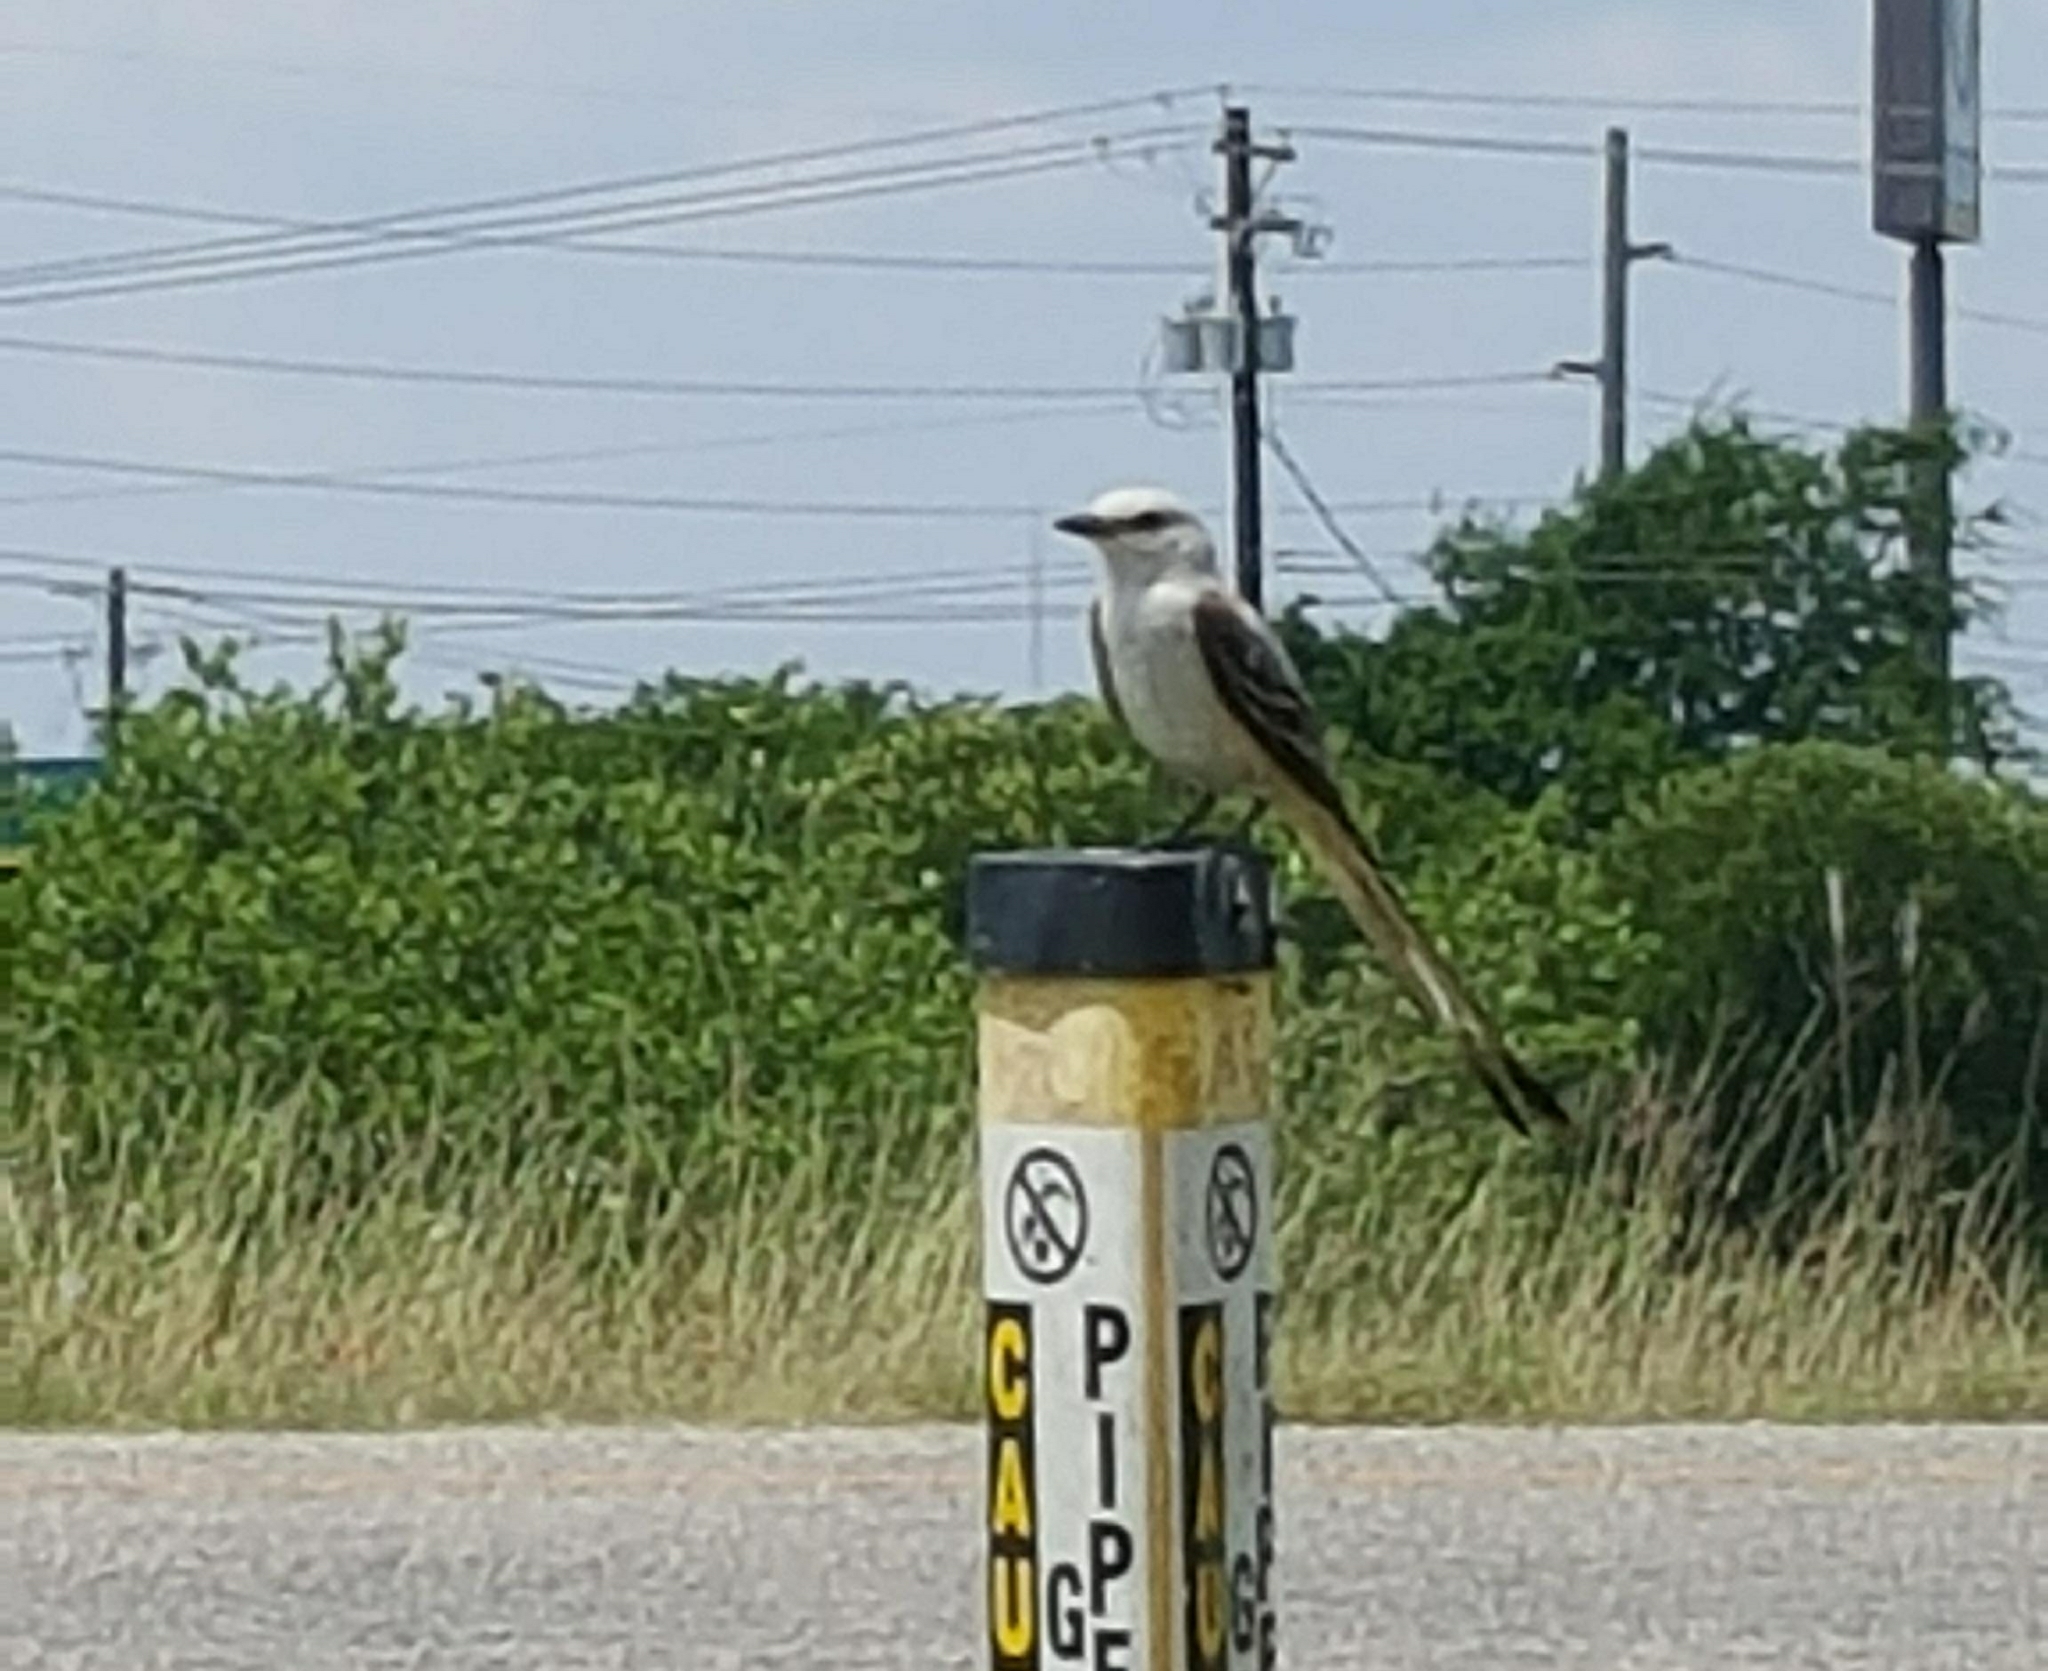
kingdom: Animalia
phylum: Chordata
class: Aves
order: Passeriformes
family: Tyrannidae
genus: Tyrannus
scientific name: Tyrannus forficatus
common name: Scissor-tailed flycatcher
